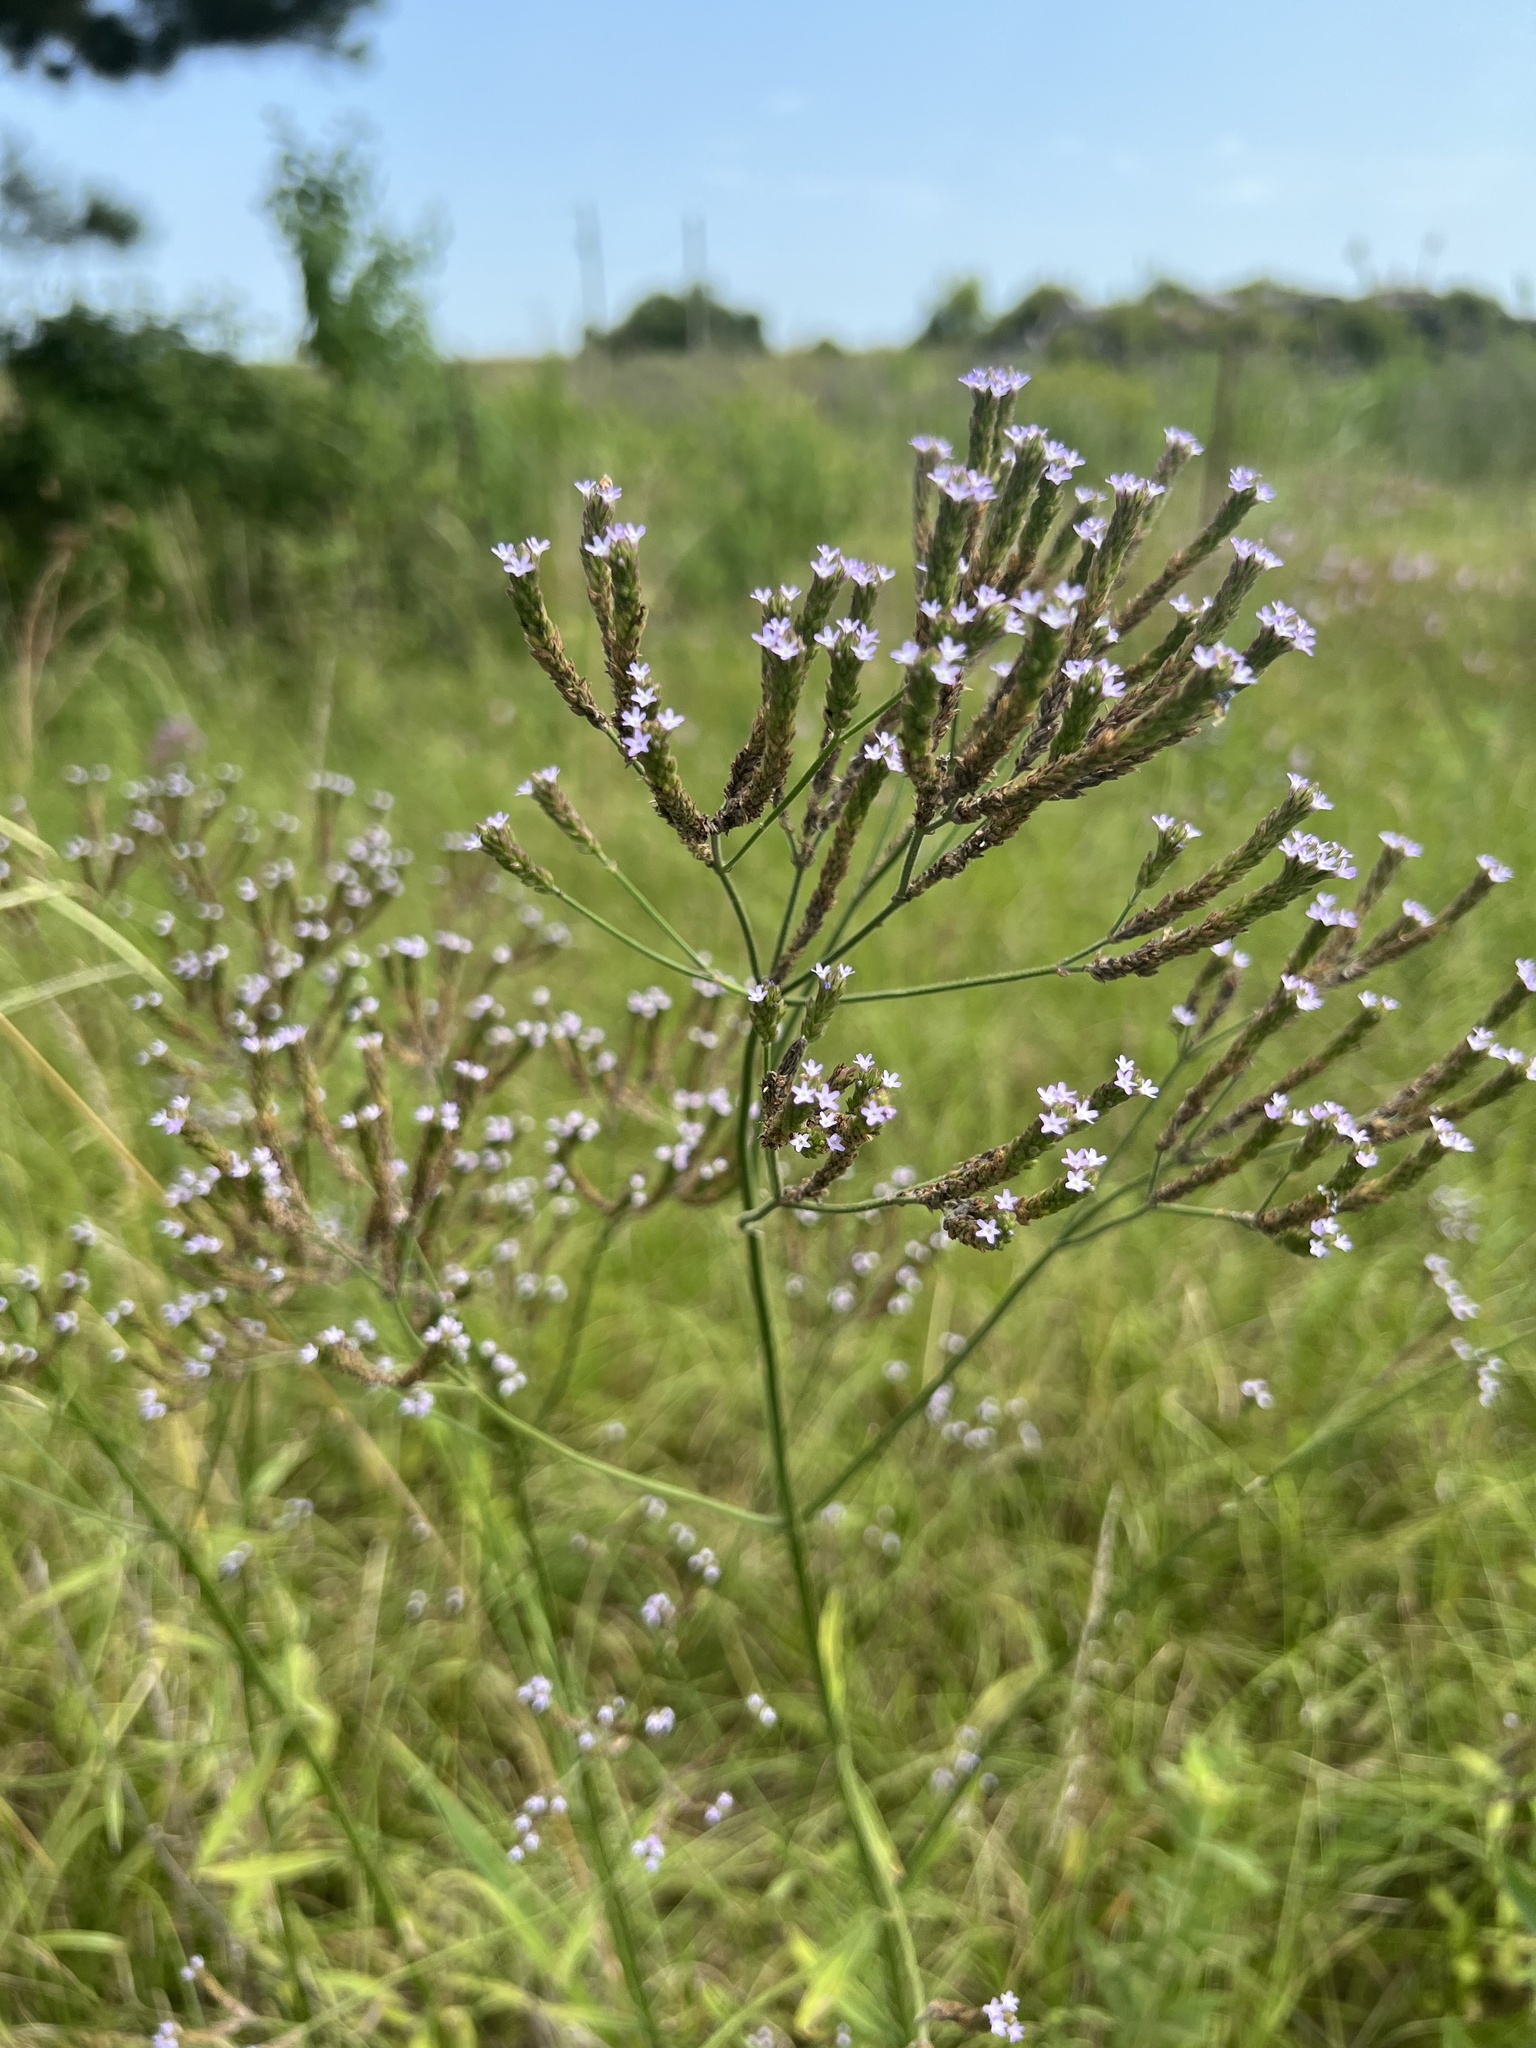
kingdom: Plantae
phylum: Tracheophyta
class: Magnoliopsida
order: Lamiales
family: Verbenaceae
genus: Verbena
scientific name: Verbena brasiliensis
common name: Brazilian vervain
